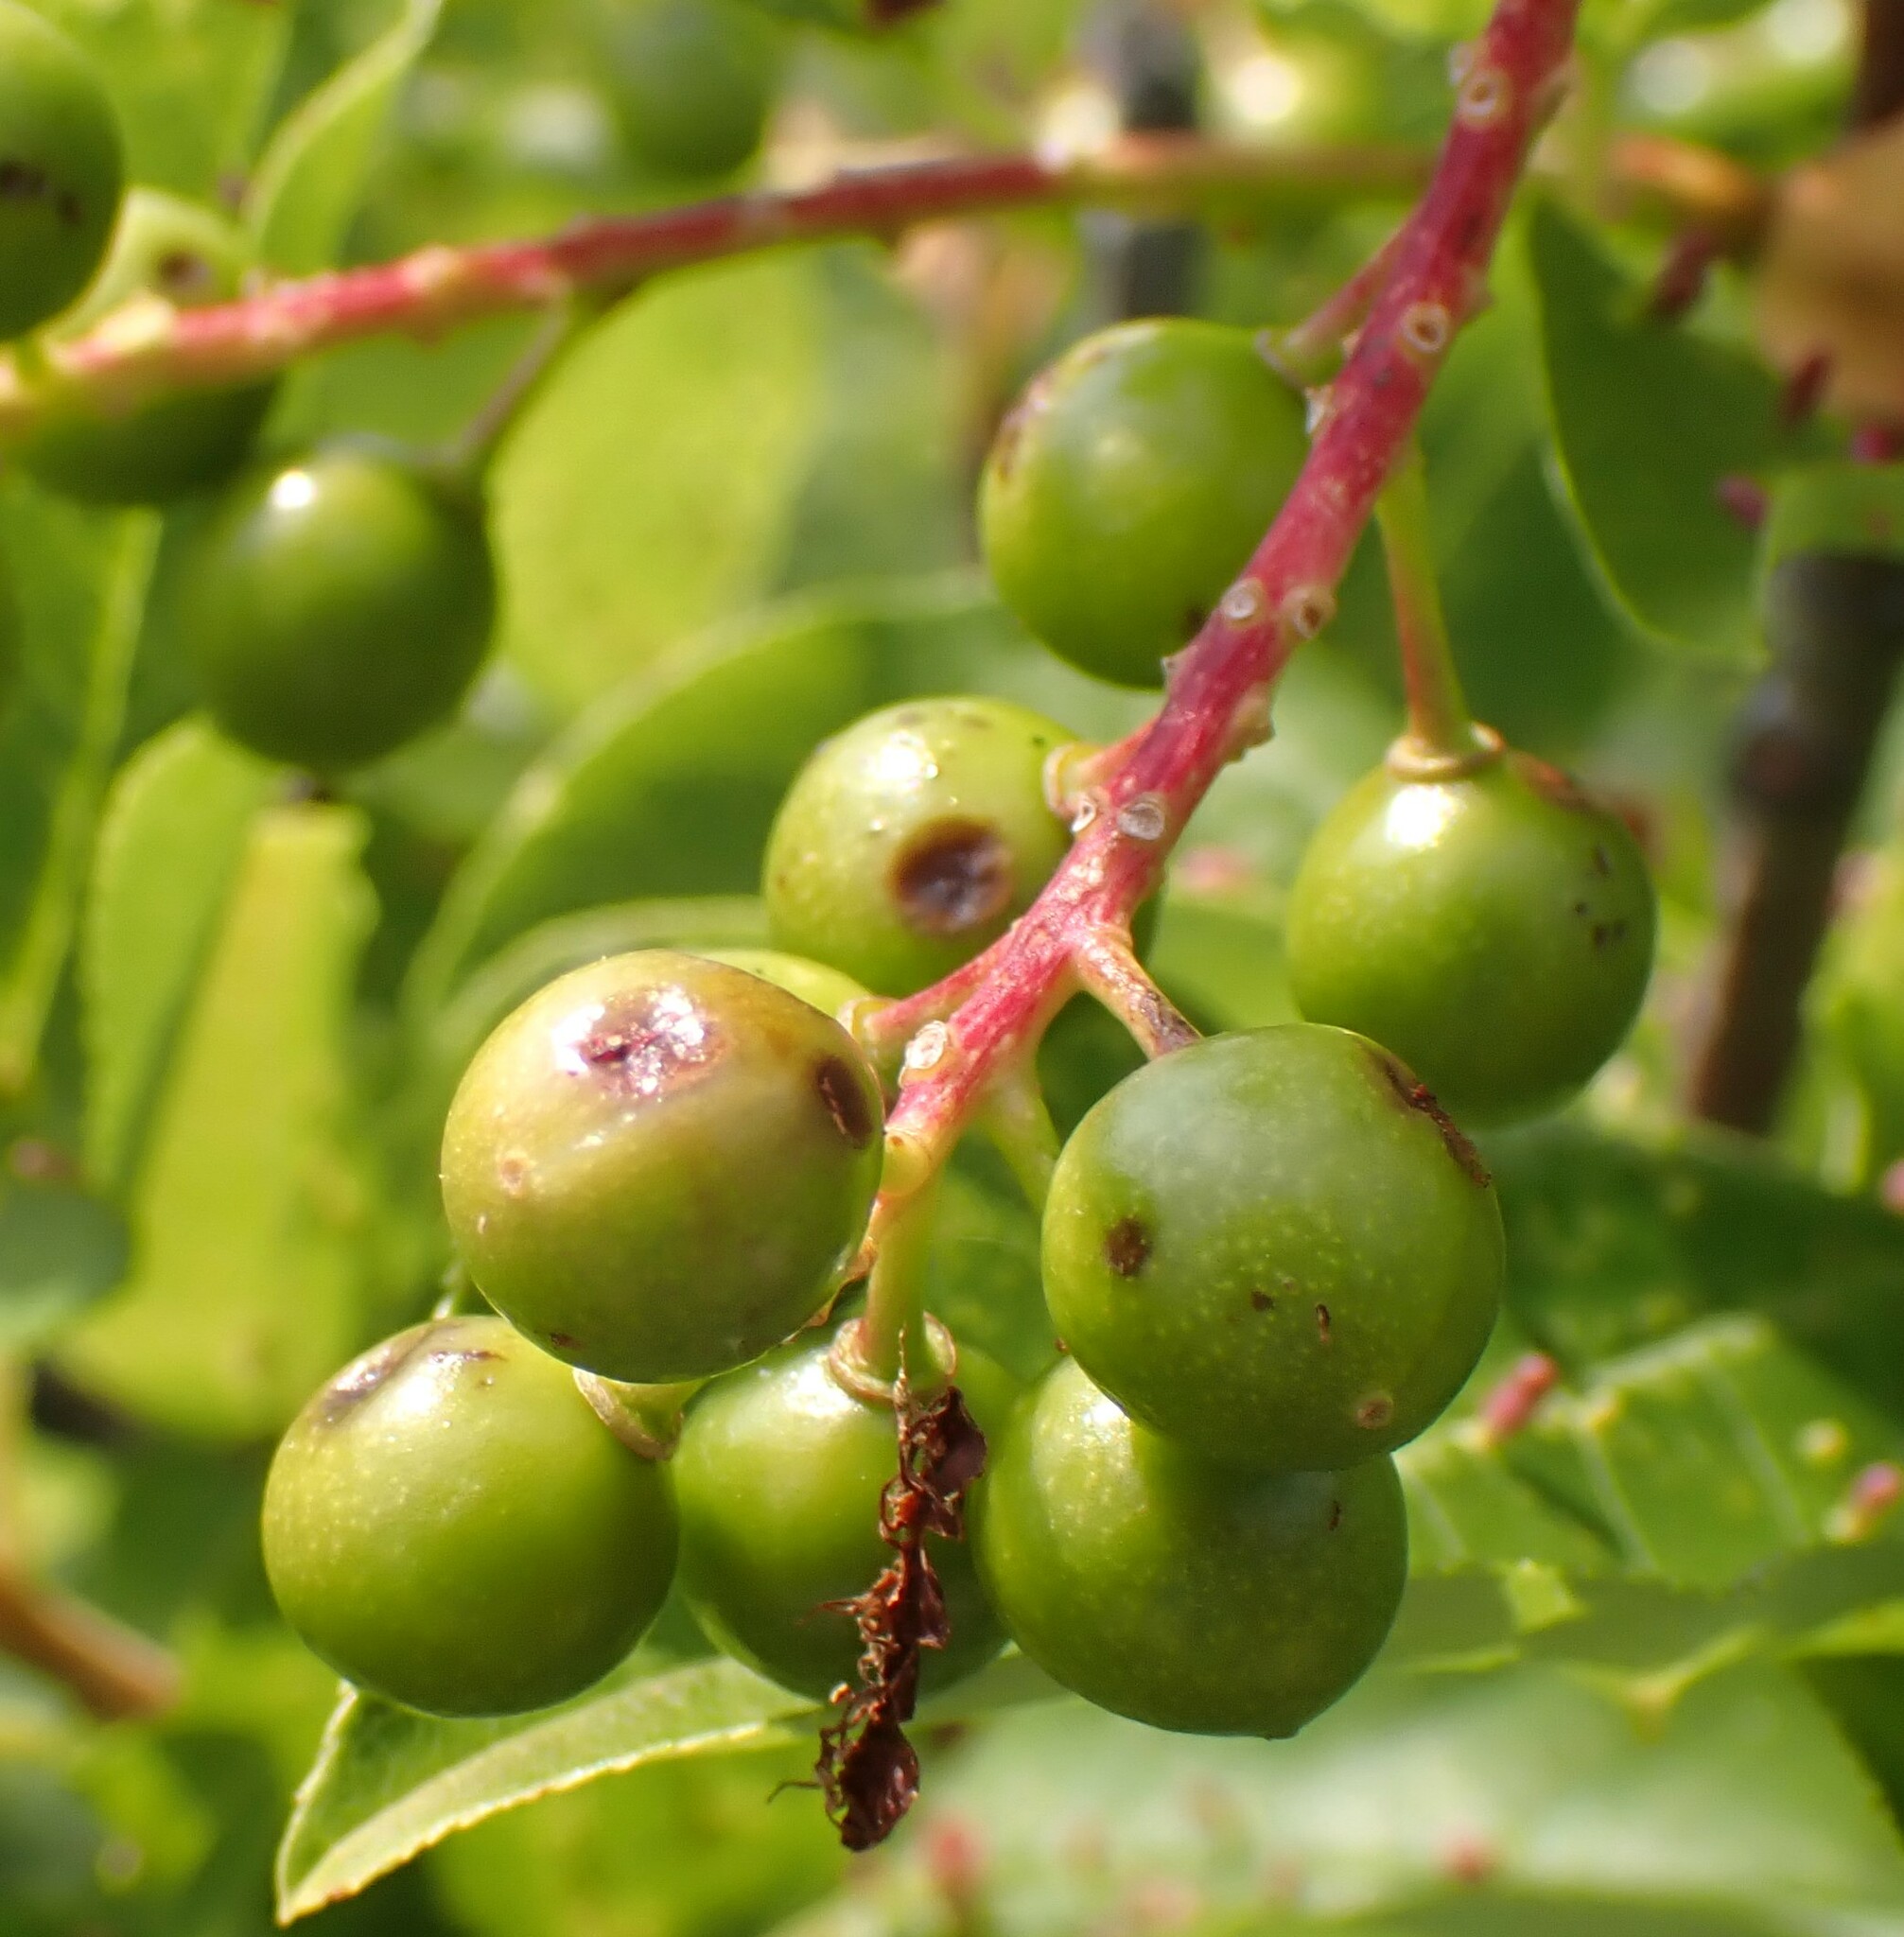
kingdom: Plantae
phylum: Tracheophyta
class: Magnoliopsida
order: Rosales
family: Rosaceae
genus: Prunus
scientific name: Prunus virginiana
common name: Chokecherry
